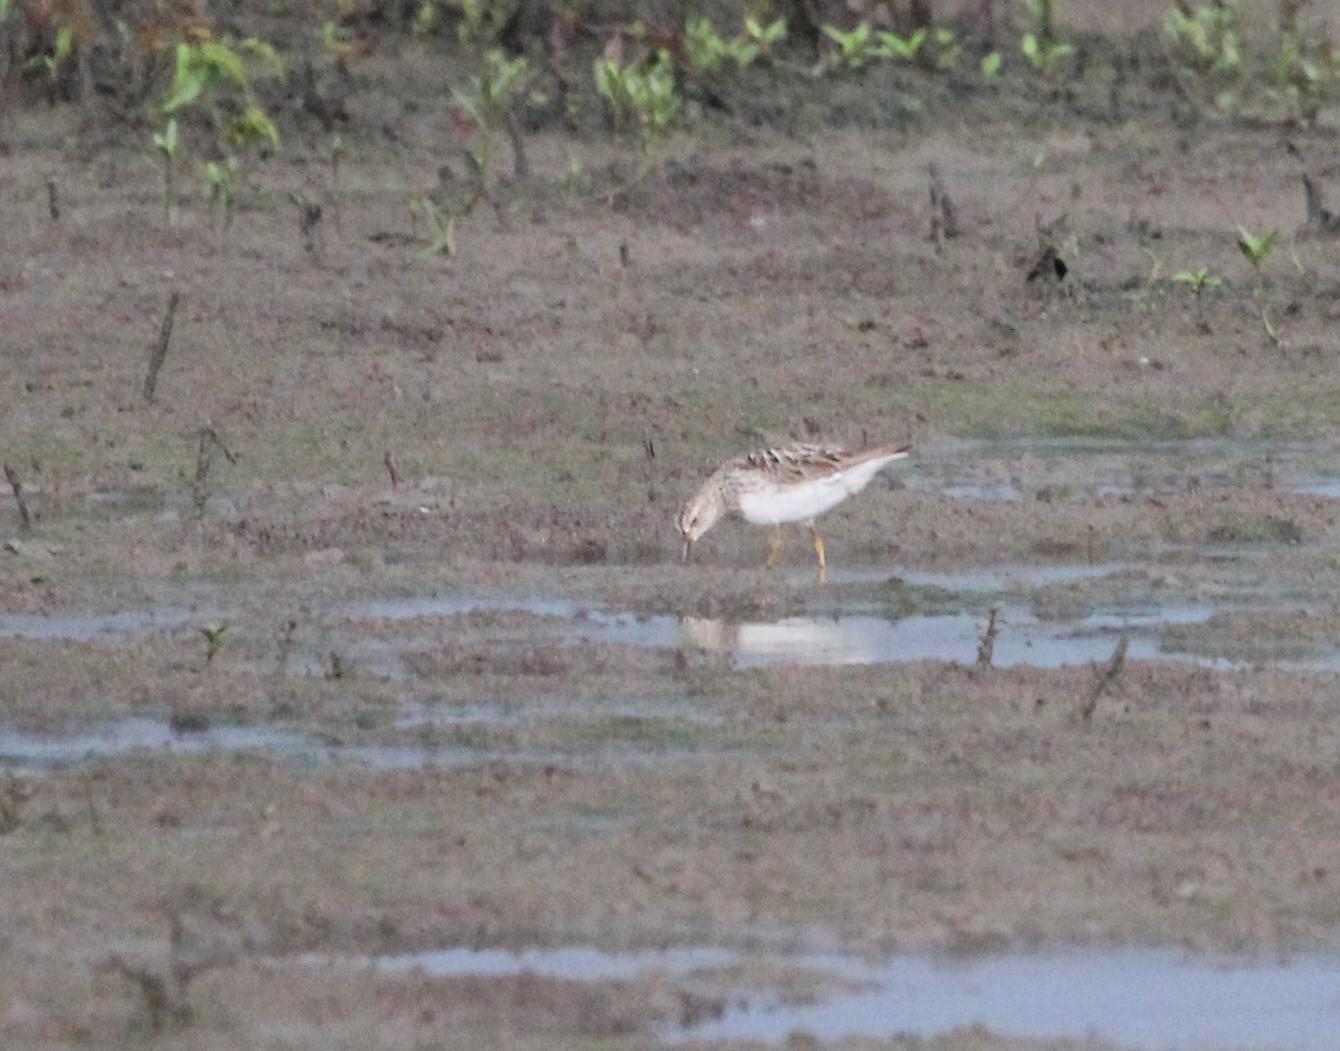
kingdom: Animalia
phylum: Chordata
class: Aves
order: Charadriiformes
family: Scolopacidae
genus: Calidris
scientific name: Calidris melanotos
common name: Pectoral sandpiper
